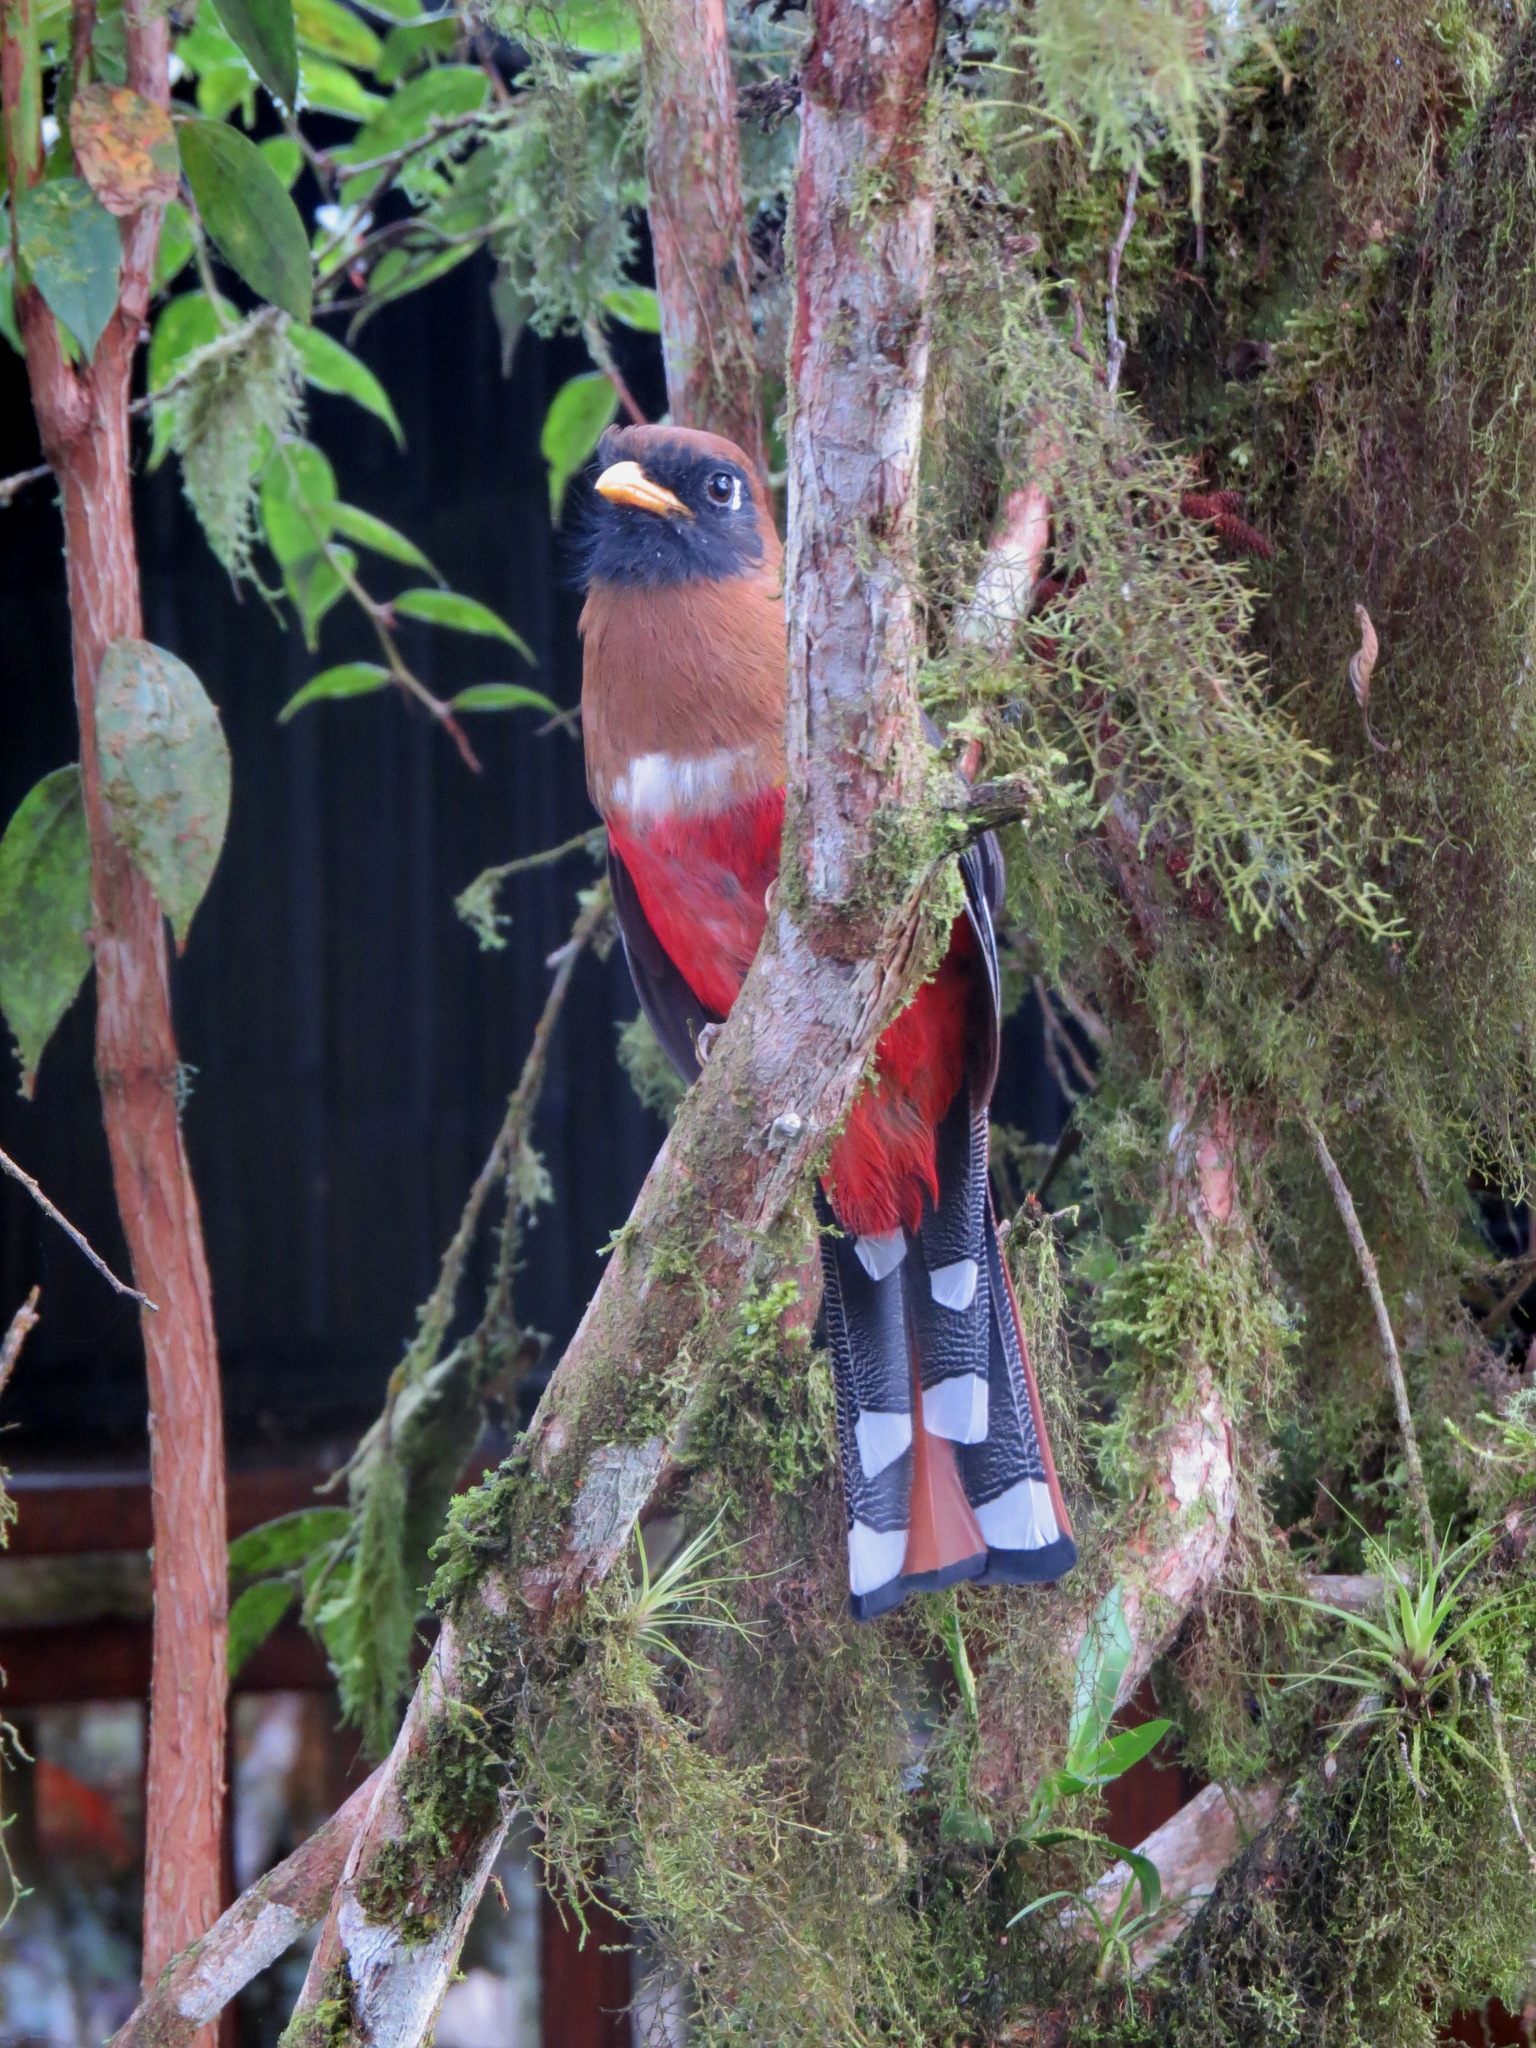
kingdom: Animalia
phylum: Chordata
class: Aves
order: Trogoniformes
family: Trogonidae
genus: Trogon
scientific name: Trogon personatus
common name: Masked trogon
